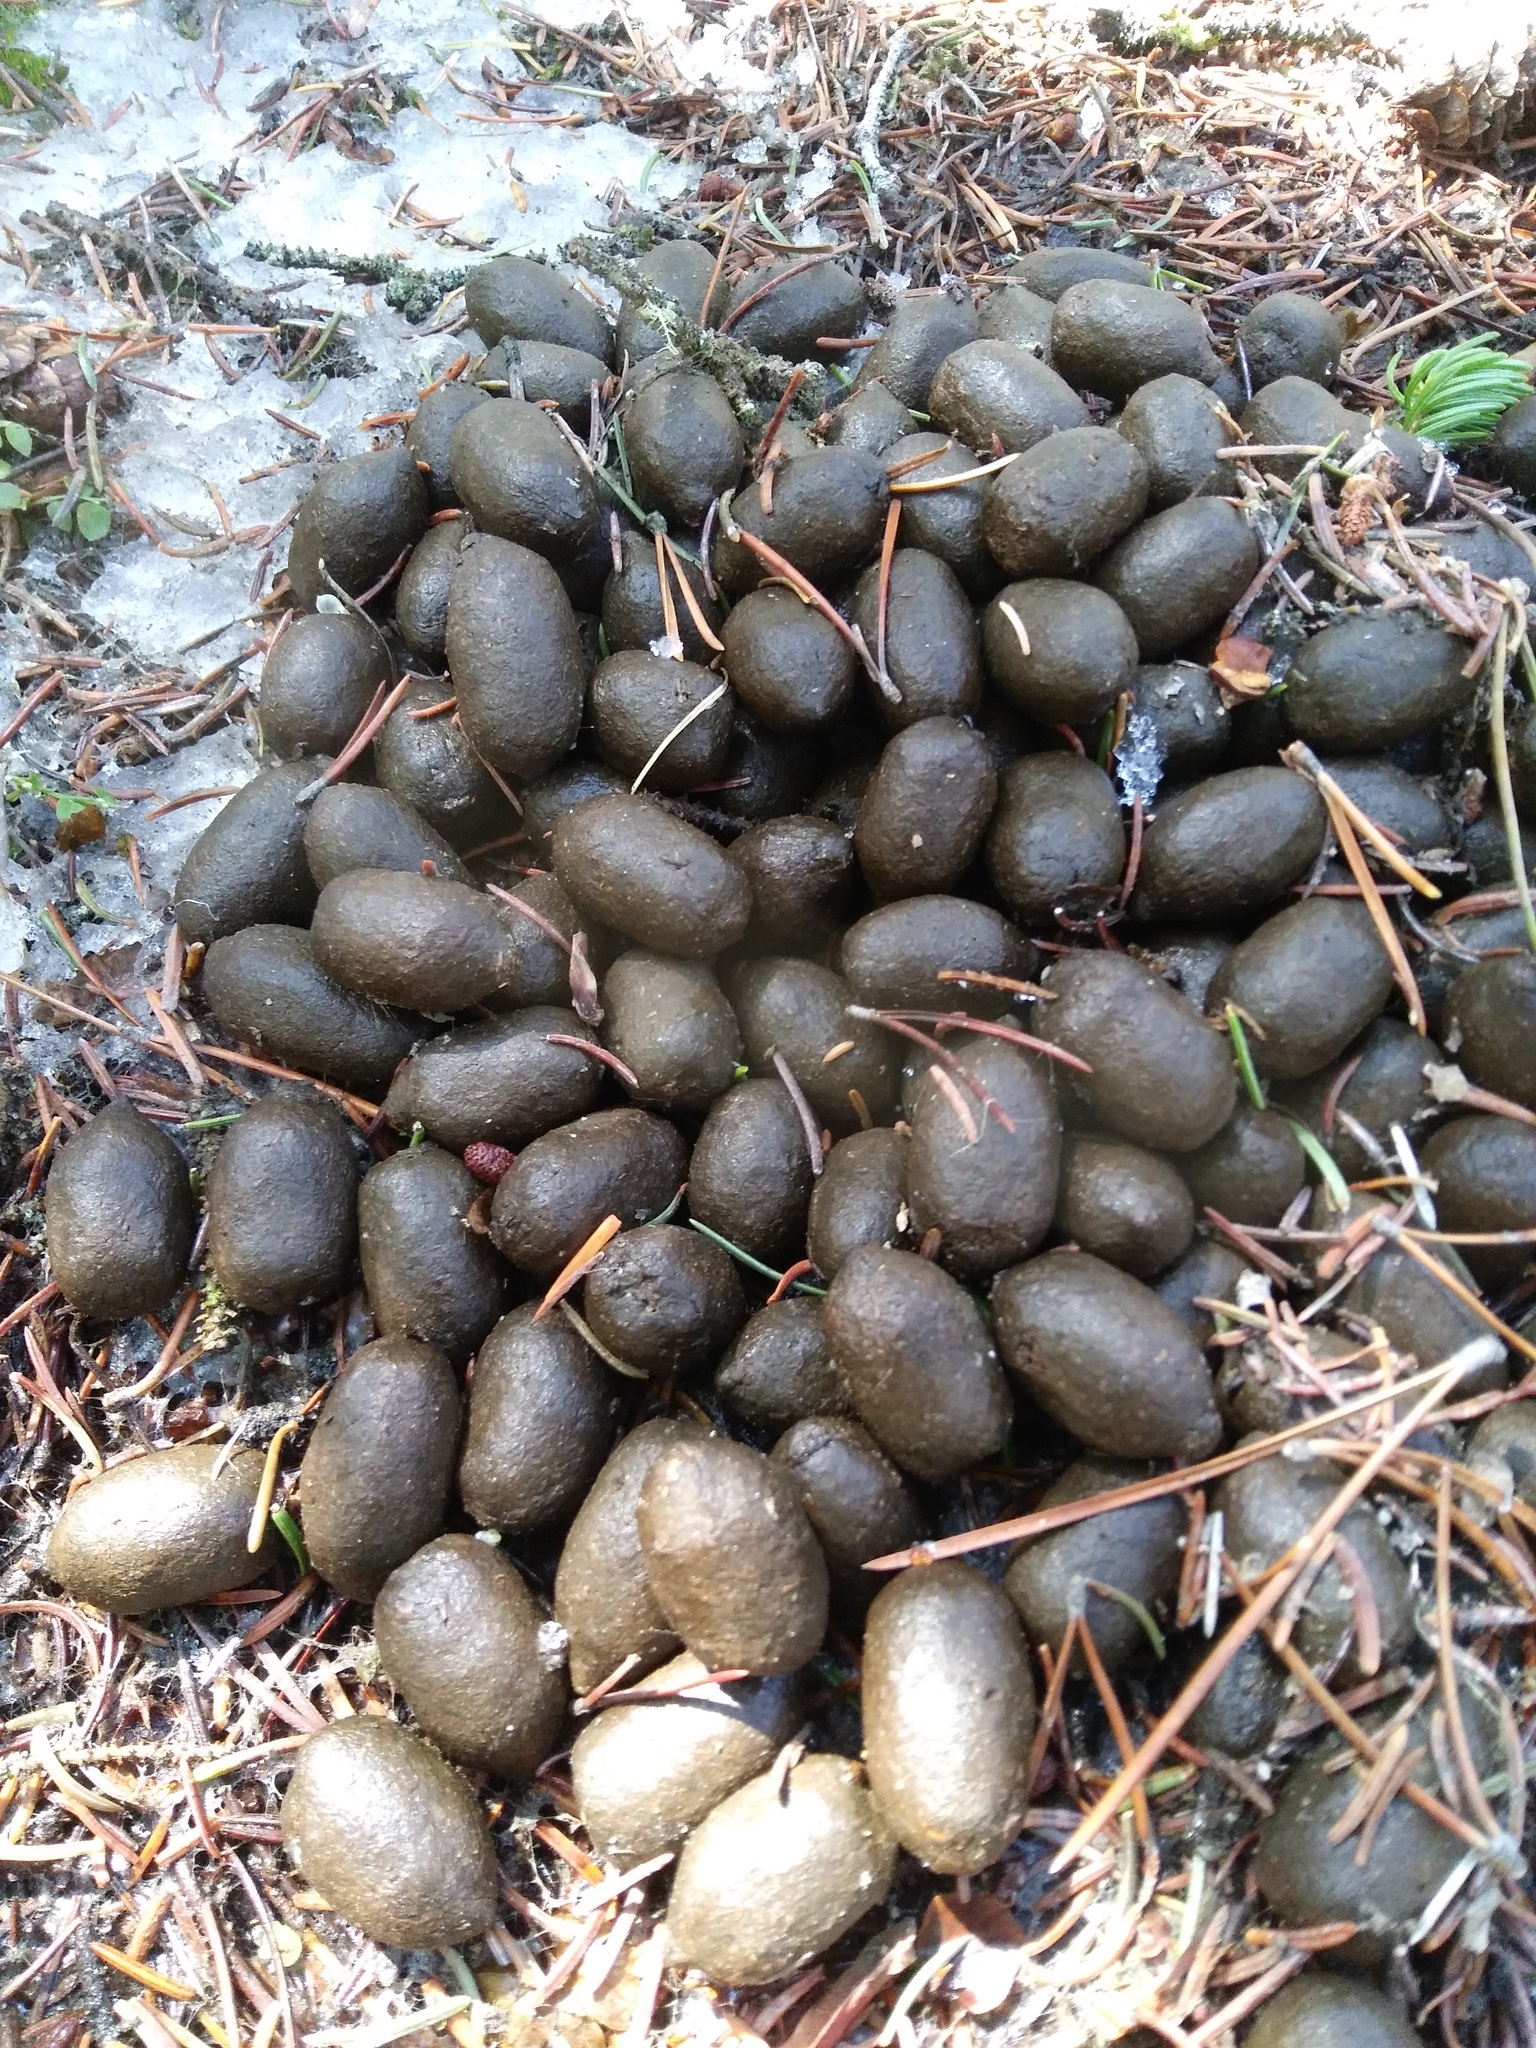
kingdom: Animalia
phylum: Chordata
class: Mammalia
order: Artiodactyla
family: Cervidae
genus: Alces
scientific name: Alces alces
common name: Moose
